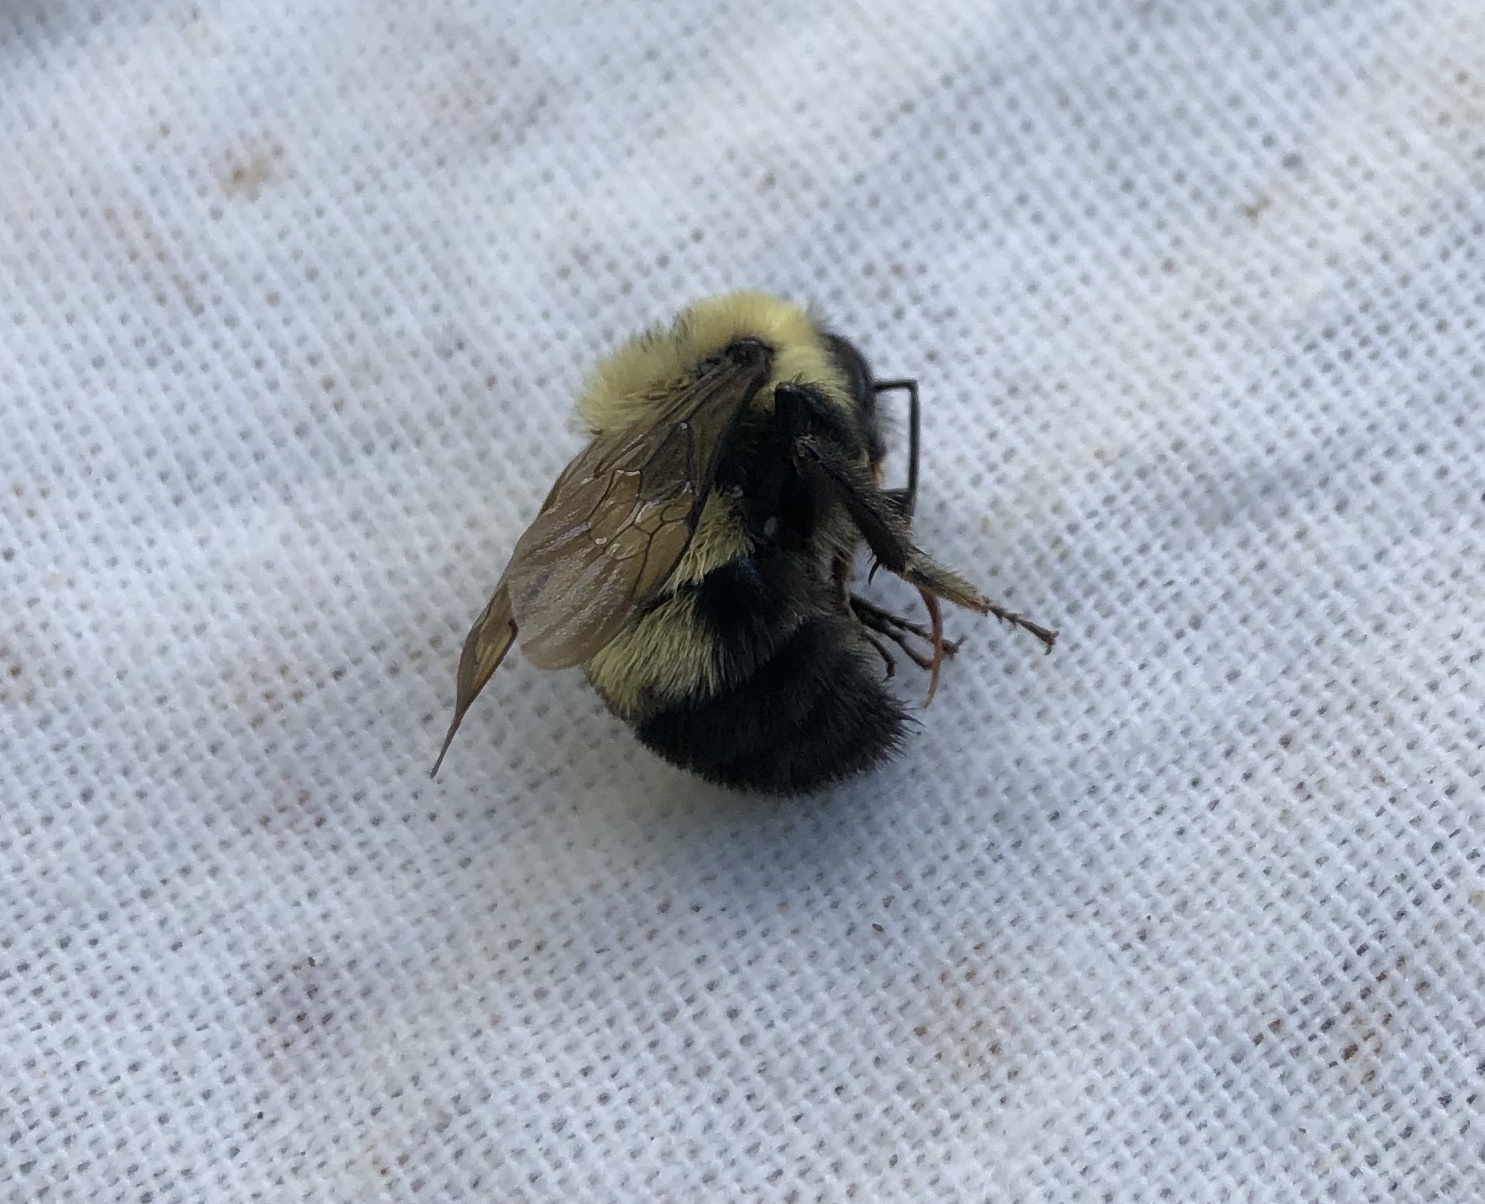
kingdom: Animalia
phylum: Arthropoda
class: Insecta
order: Hymenoptera
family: Apidae
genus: Bombus
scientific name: Bombus bimaculatus
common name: Two-spotted bumble bee
